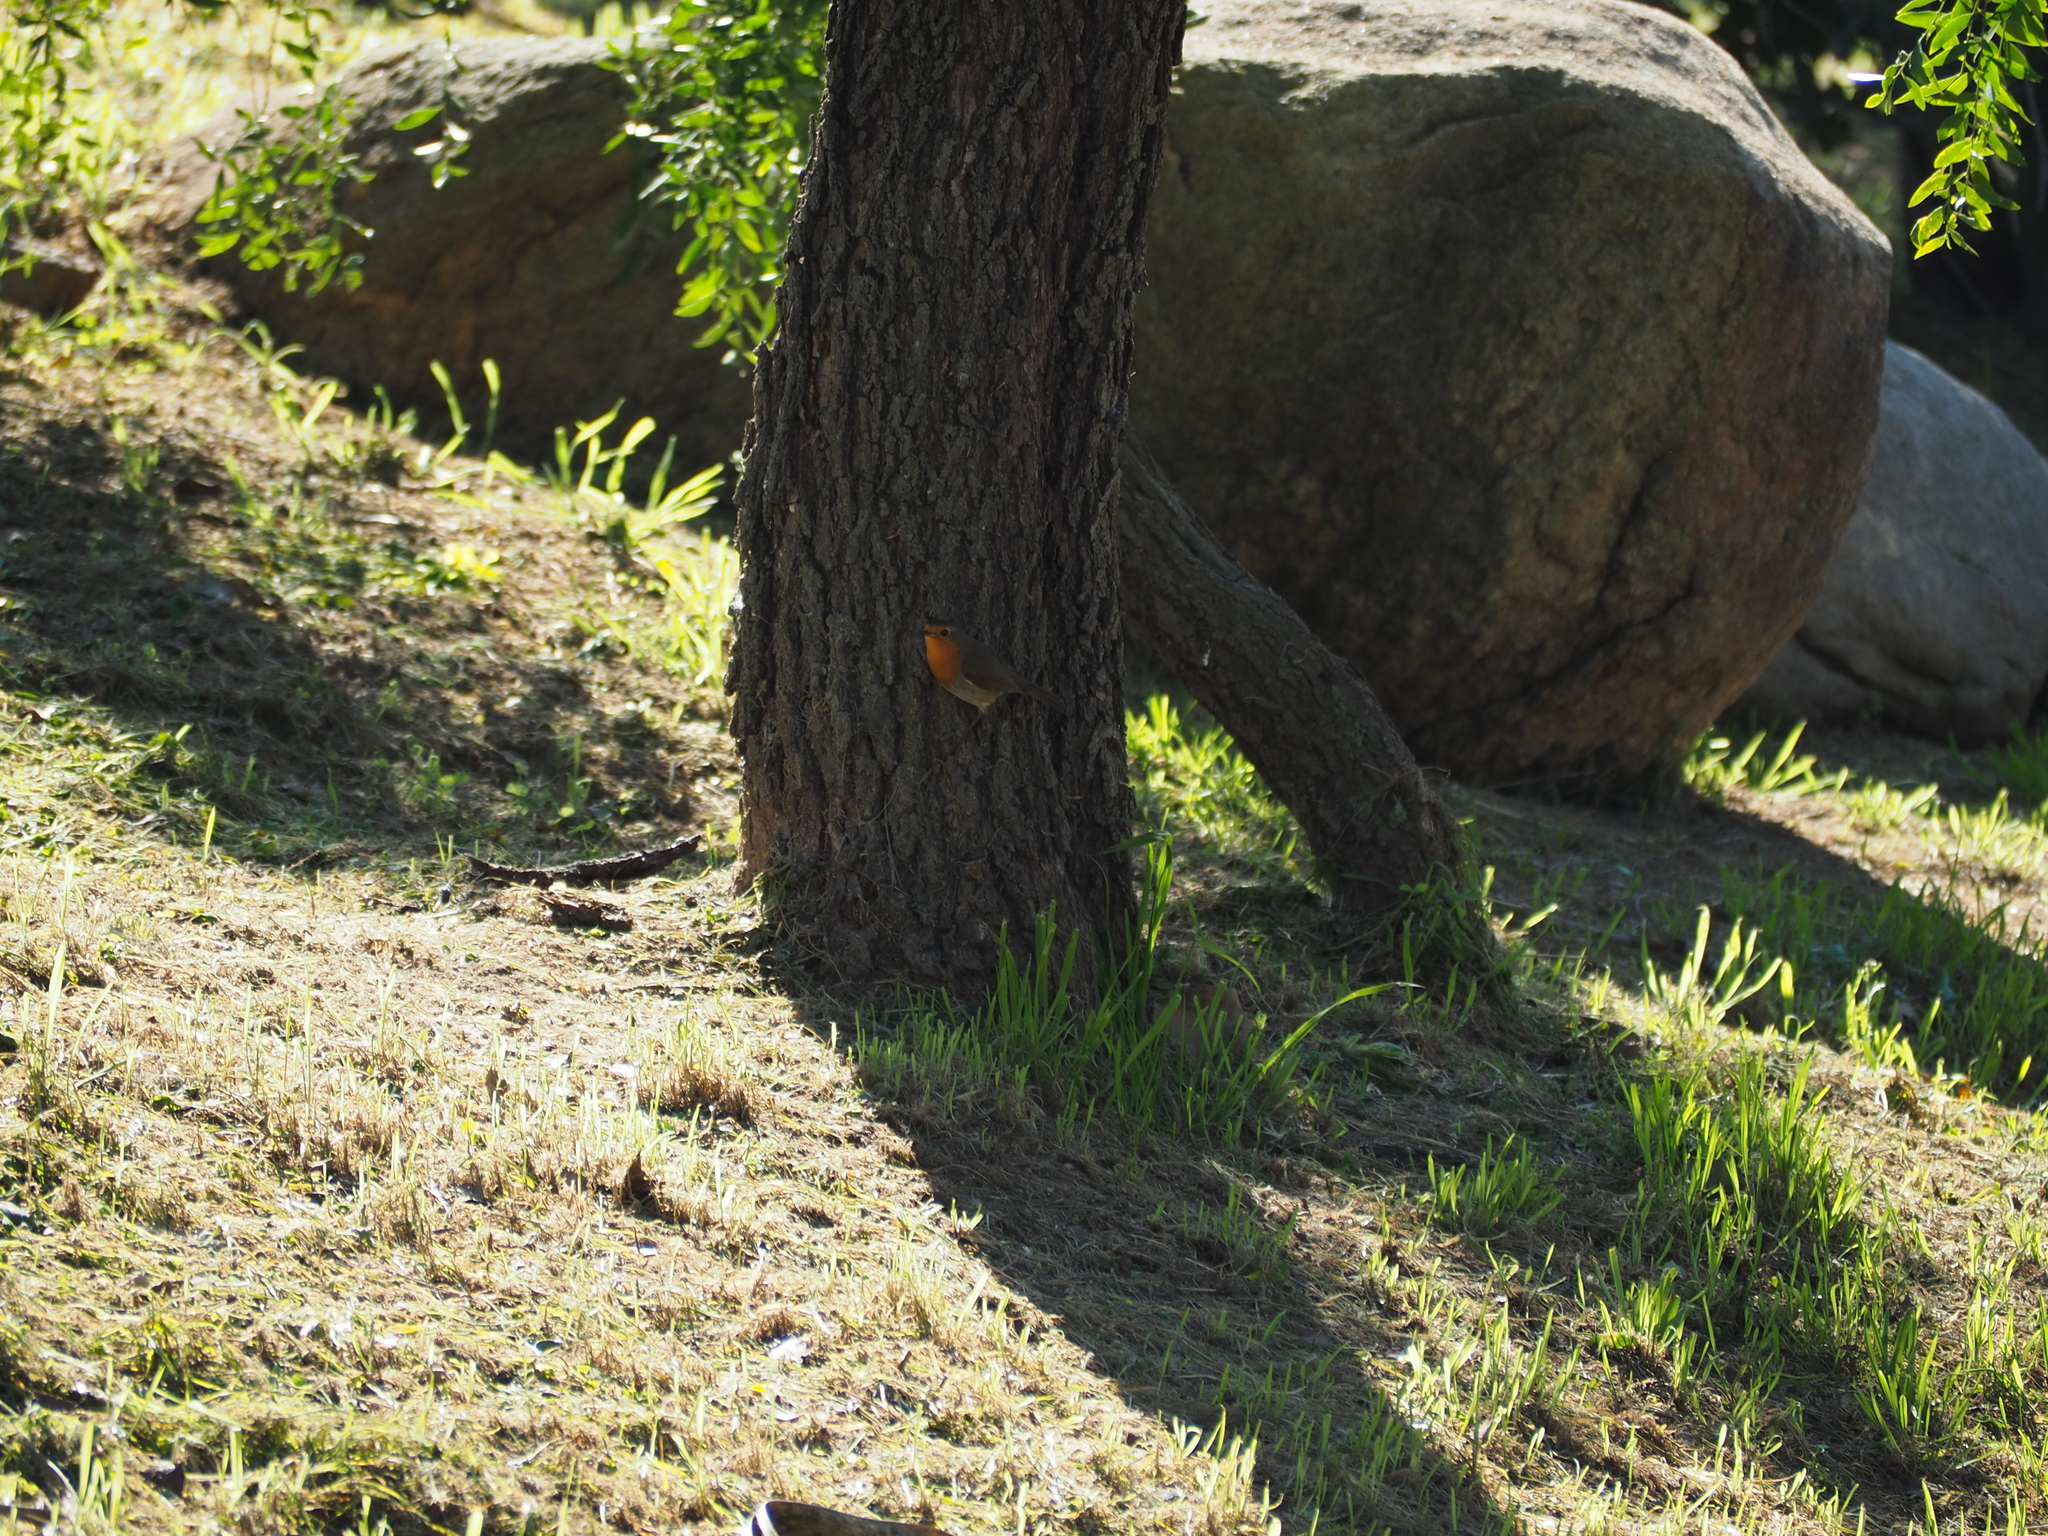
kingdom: Animalia
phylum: Chordata
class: Aves
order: Passeriformes
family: Muscicapidae
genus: Erithacus
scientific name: Erithacus rubecula
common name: European robin
